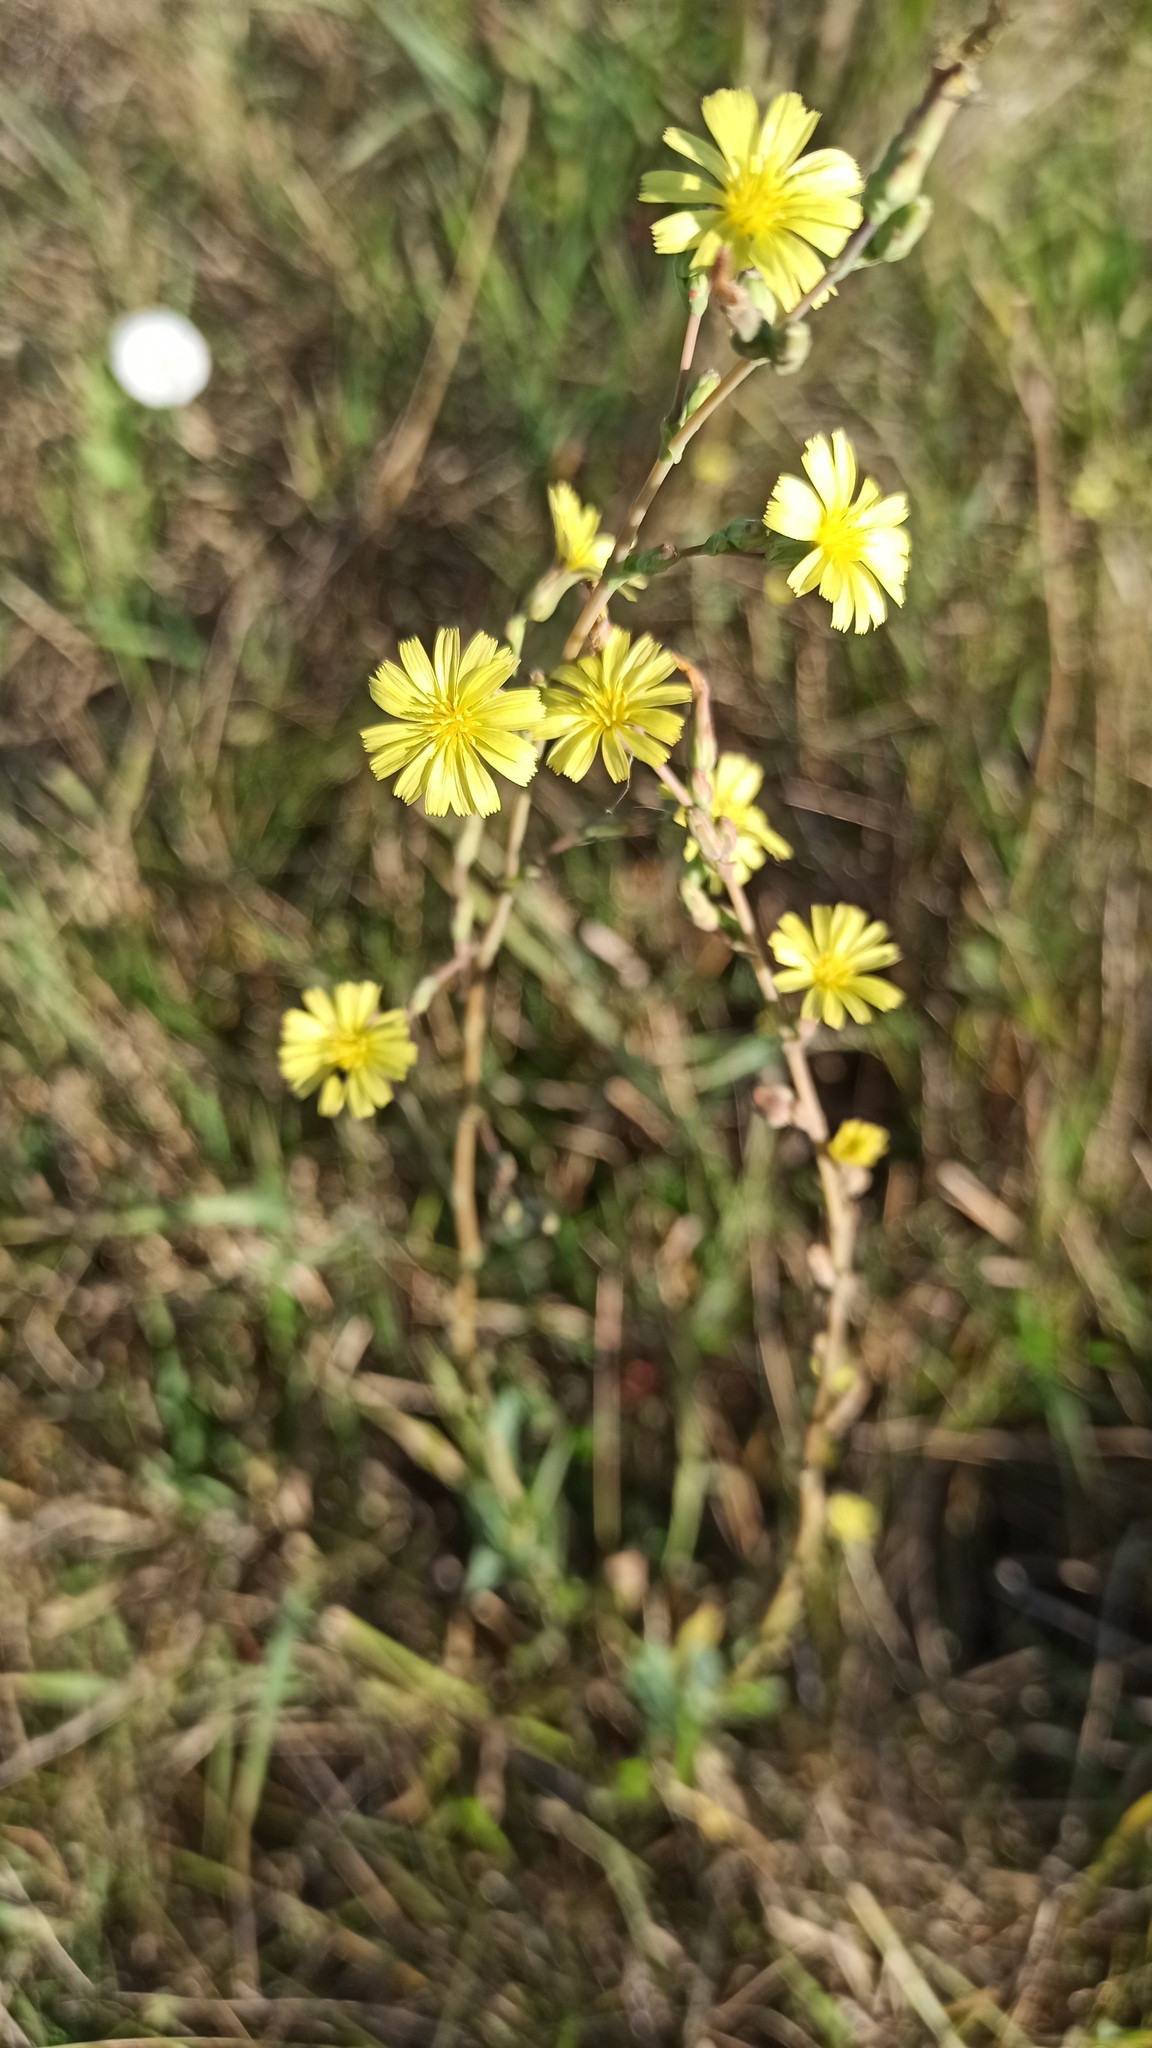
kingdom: Plantae
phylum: Tracheophyta
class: Magnoliopsida
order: Asterales
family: Asteraceae
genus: Lactuca
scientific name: Lactuca serriola
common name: Prickly lettuce
